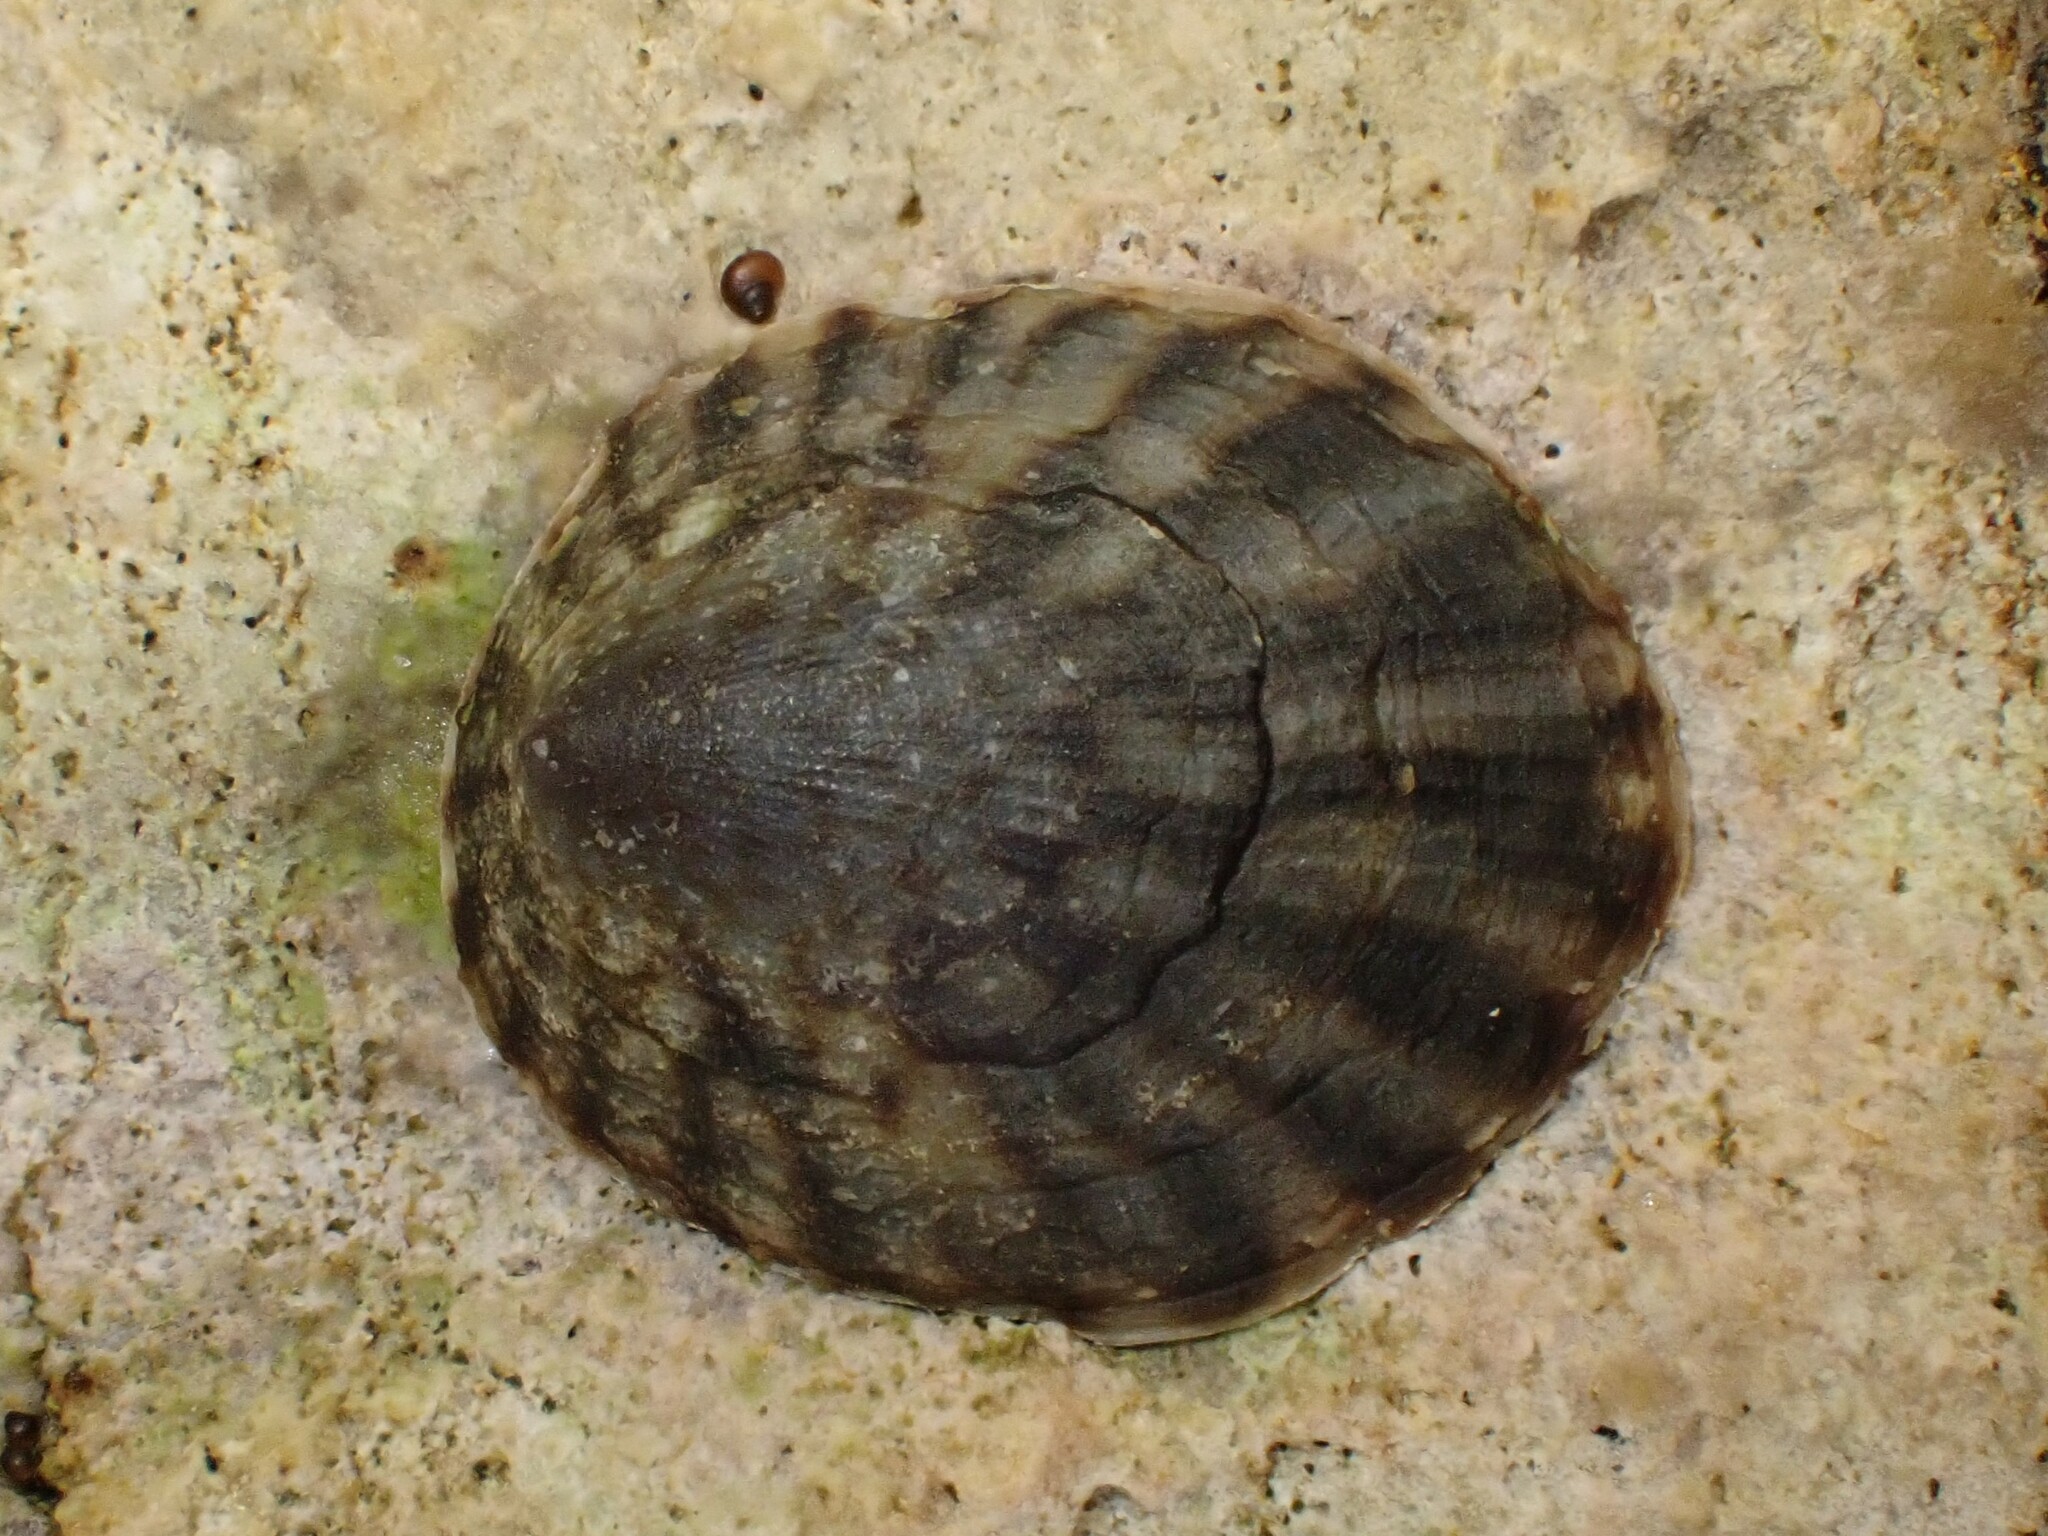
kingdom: Animalia
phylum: Mollusca
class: Gastropoda
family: Lottiidae
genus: Notoacmea
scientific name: Notoacmea pileopsis
